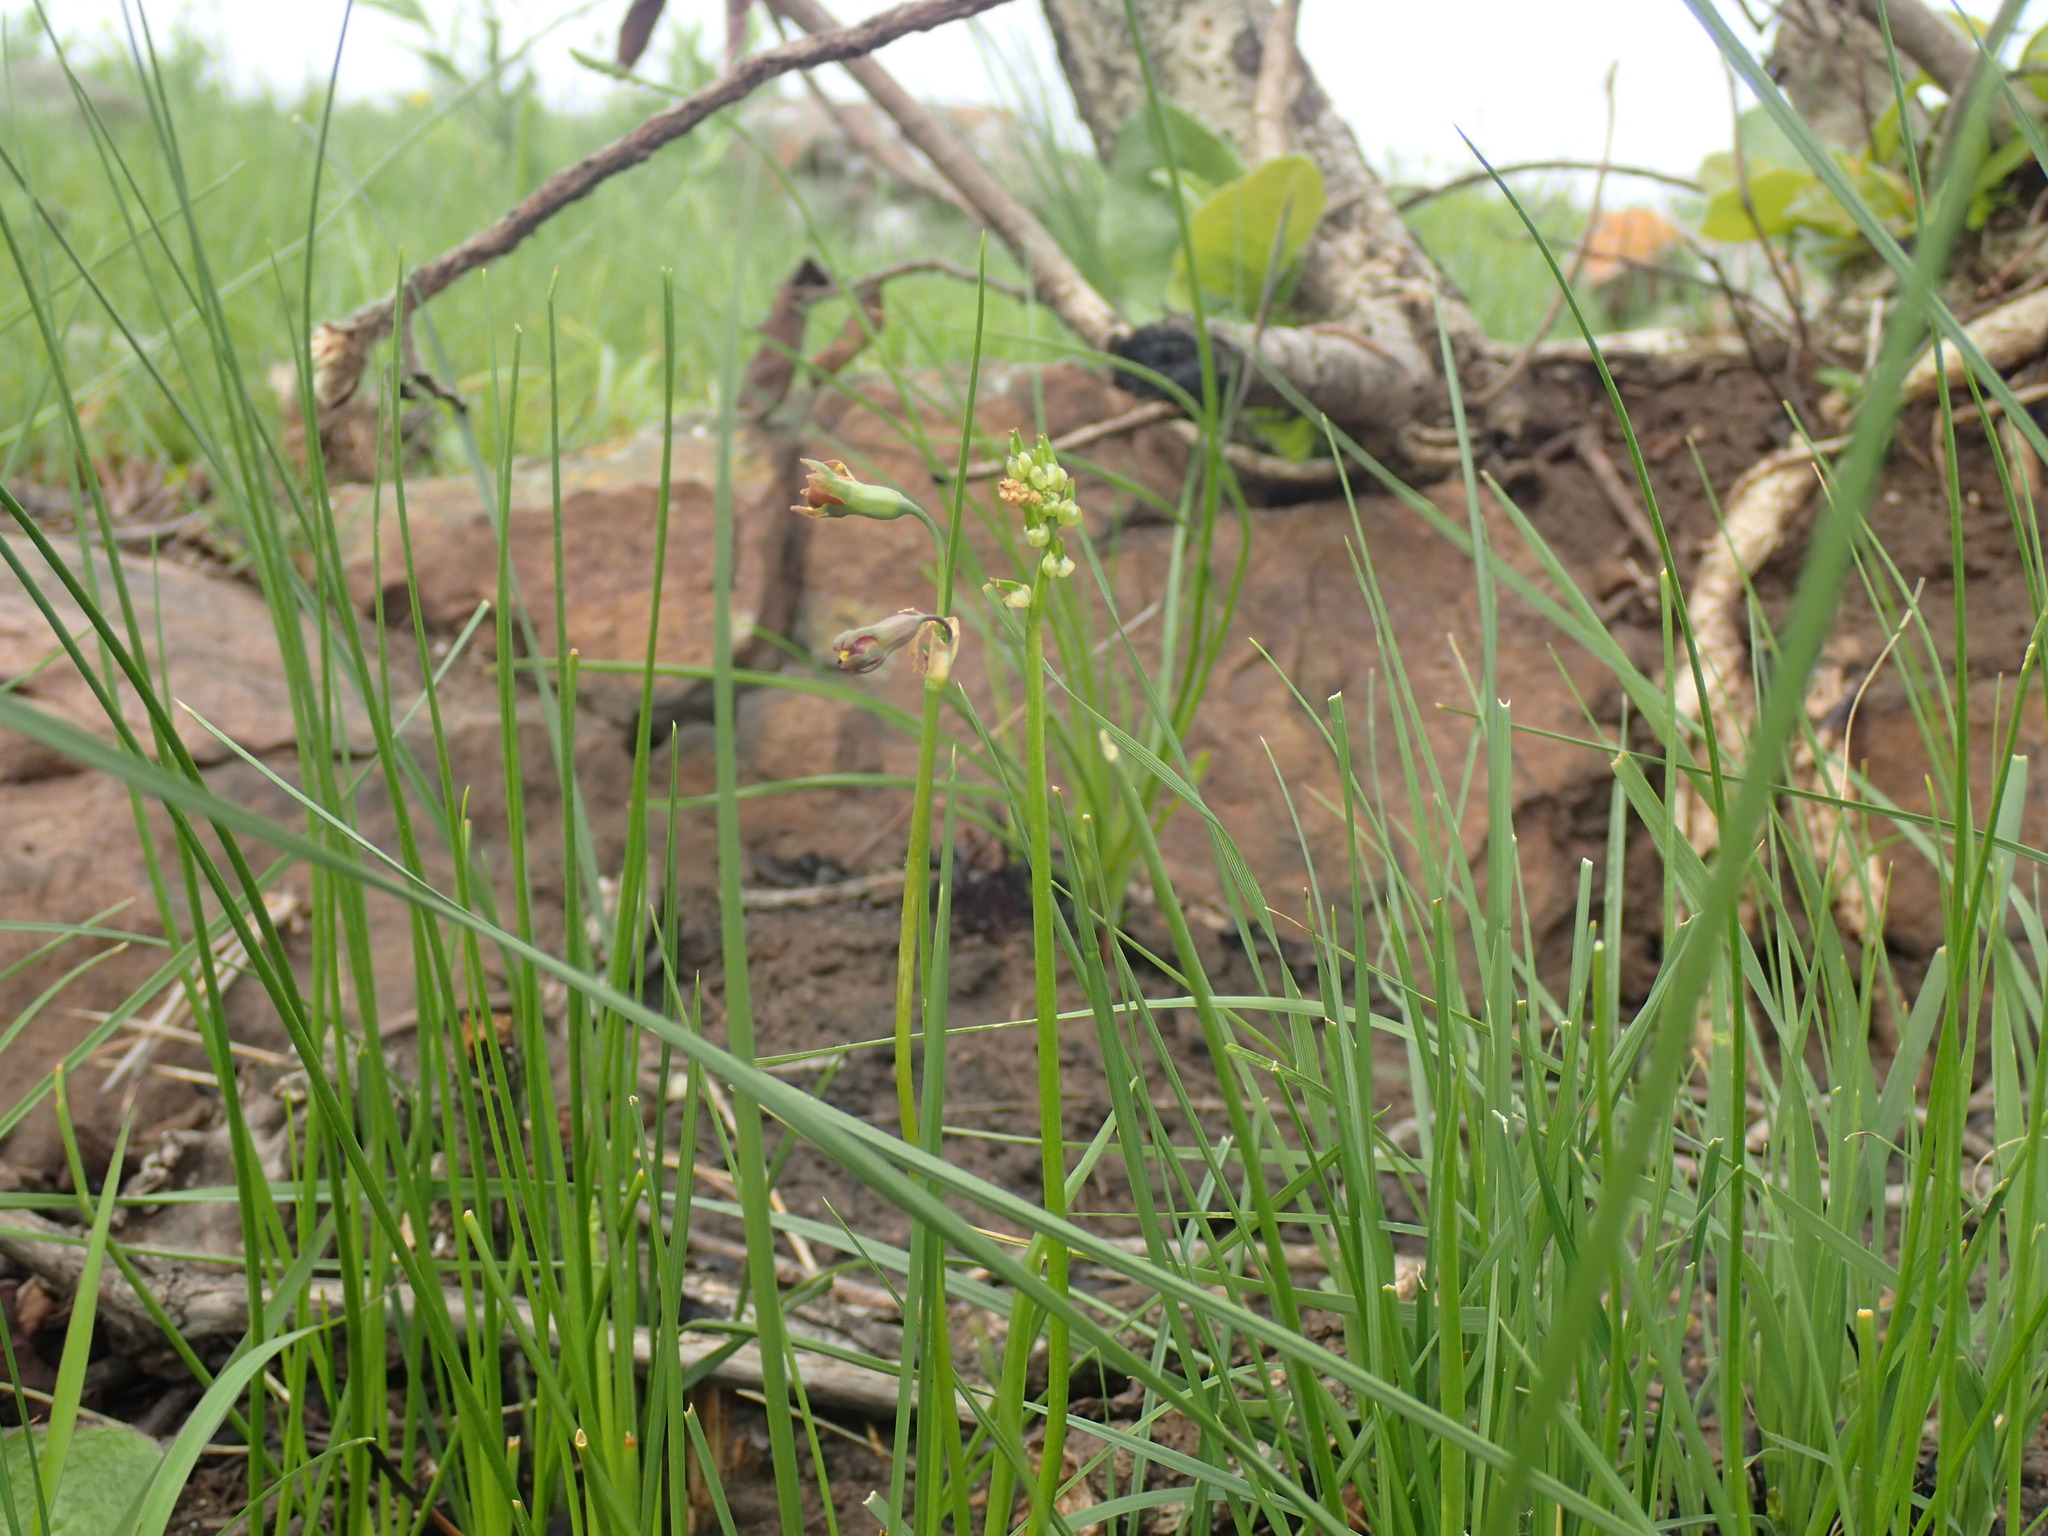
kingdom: Plantae
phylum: Tracheophyta
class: Liliopsida
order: Asparagales
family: Amaryllidaceae
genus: Tulbaghia
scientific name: Tulbaghia acutiloba
